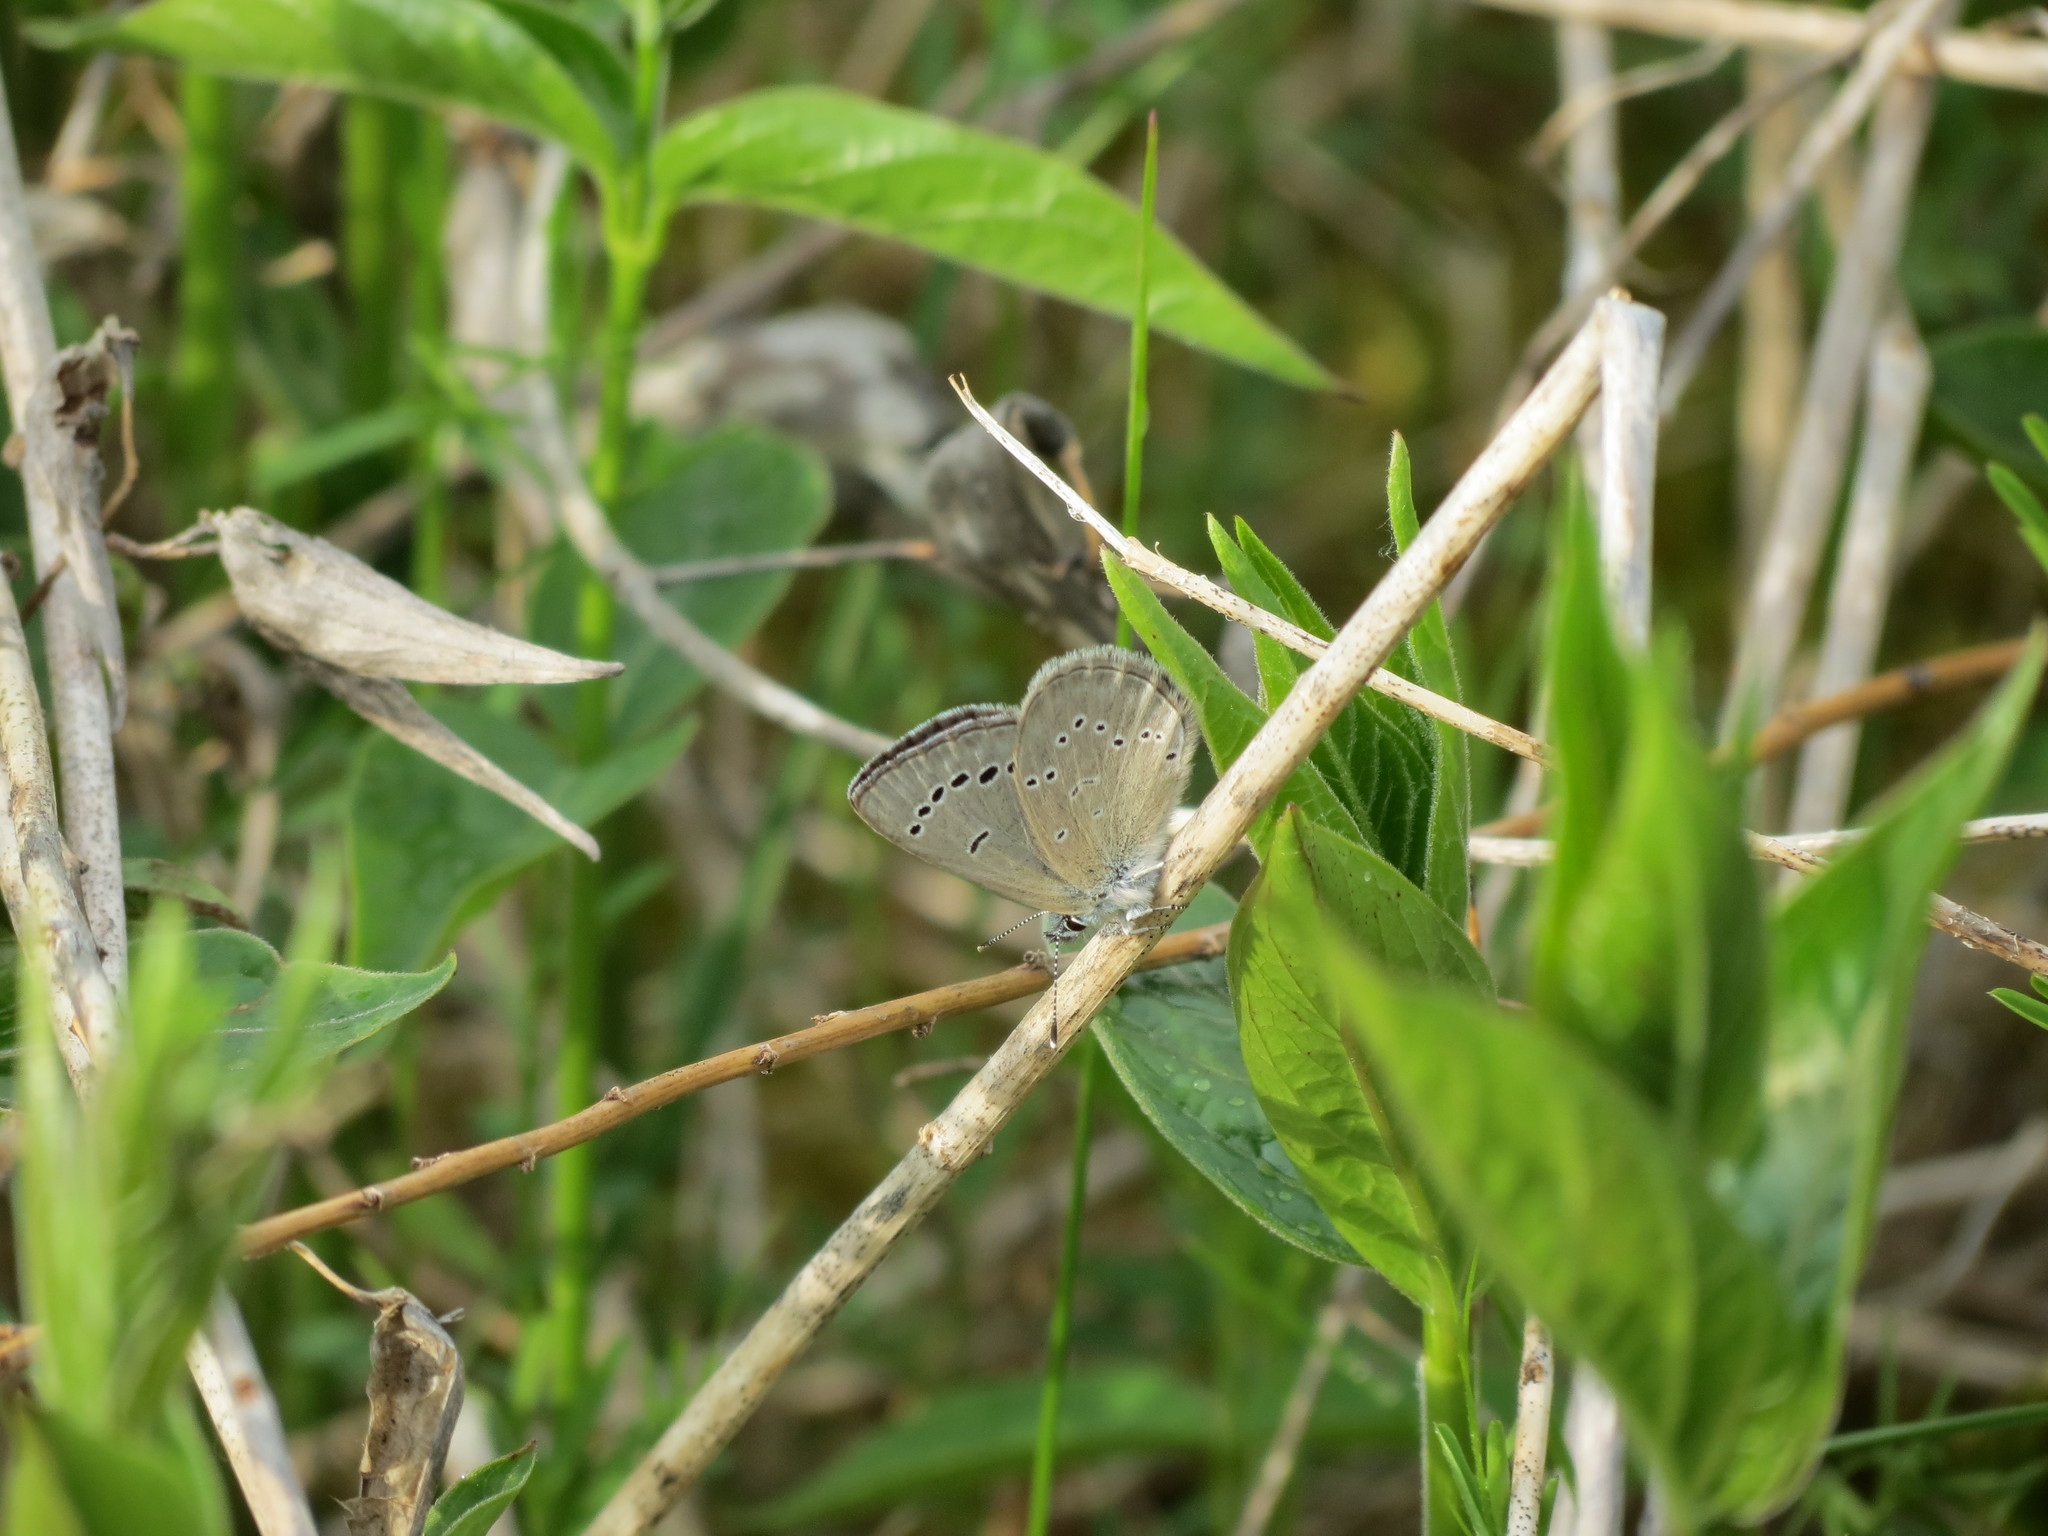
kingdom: Animalia
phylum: Arthropoda
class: Insecta
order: Lepidoptera
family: Lycaenidae
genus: Glaucopsyche
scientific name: Glaucopsyche lygdamus
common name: Silvery blue
